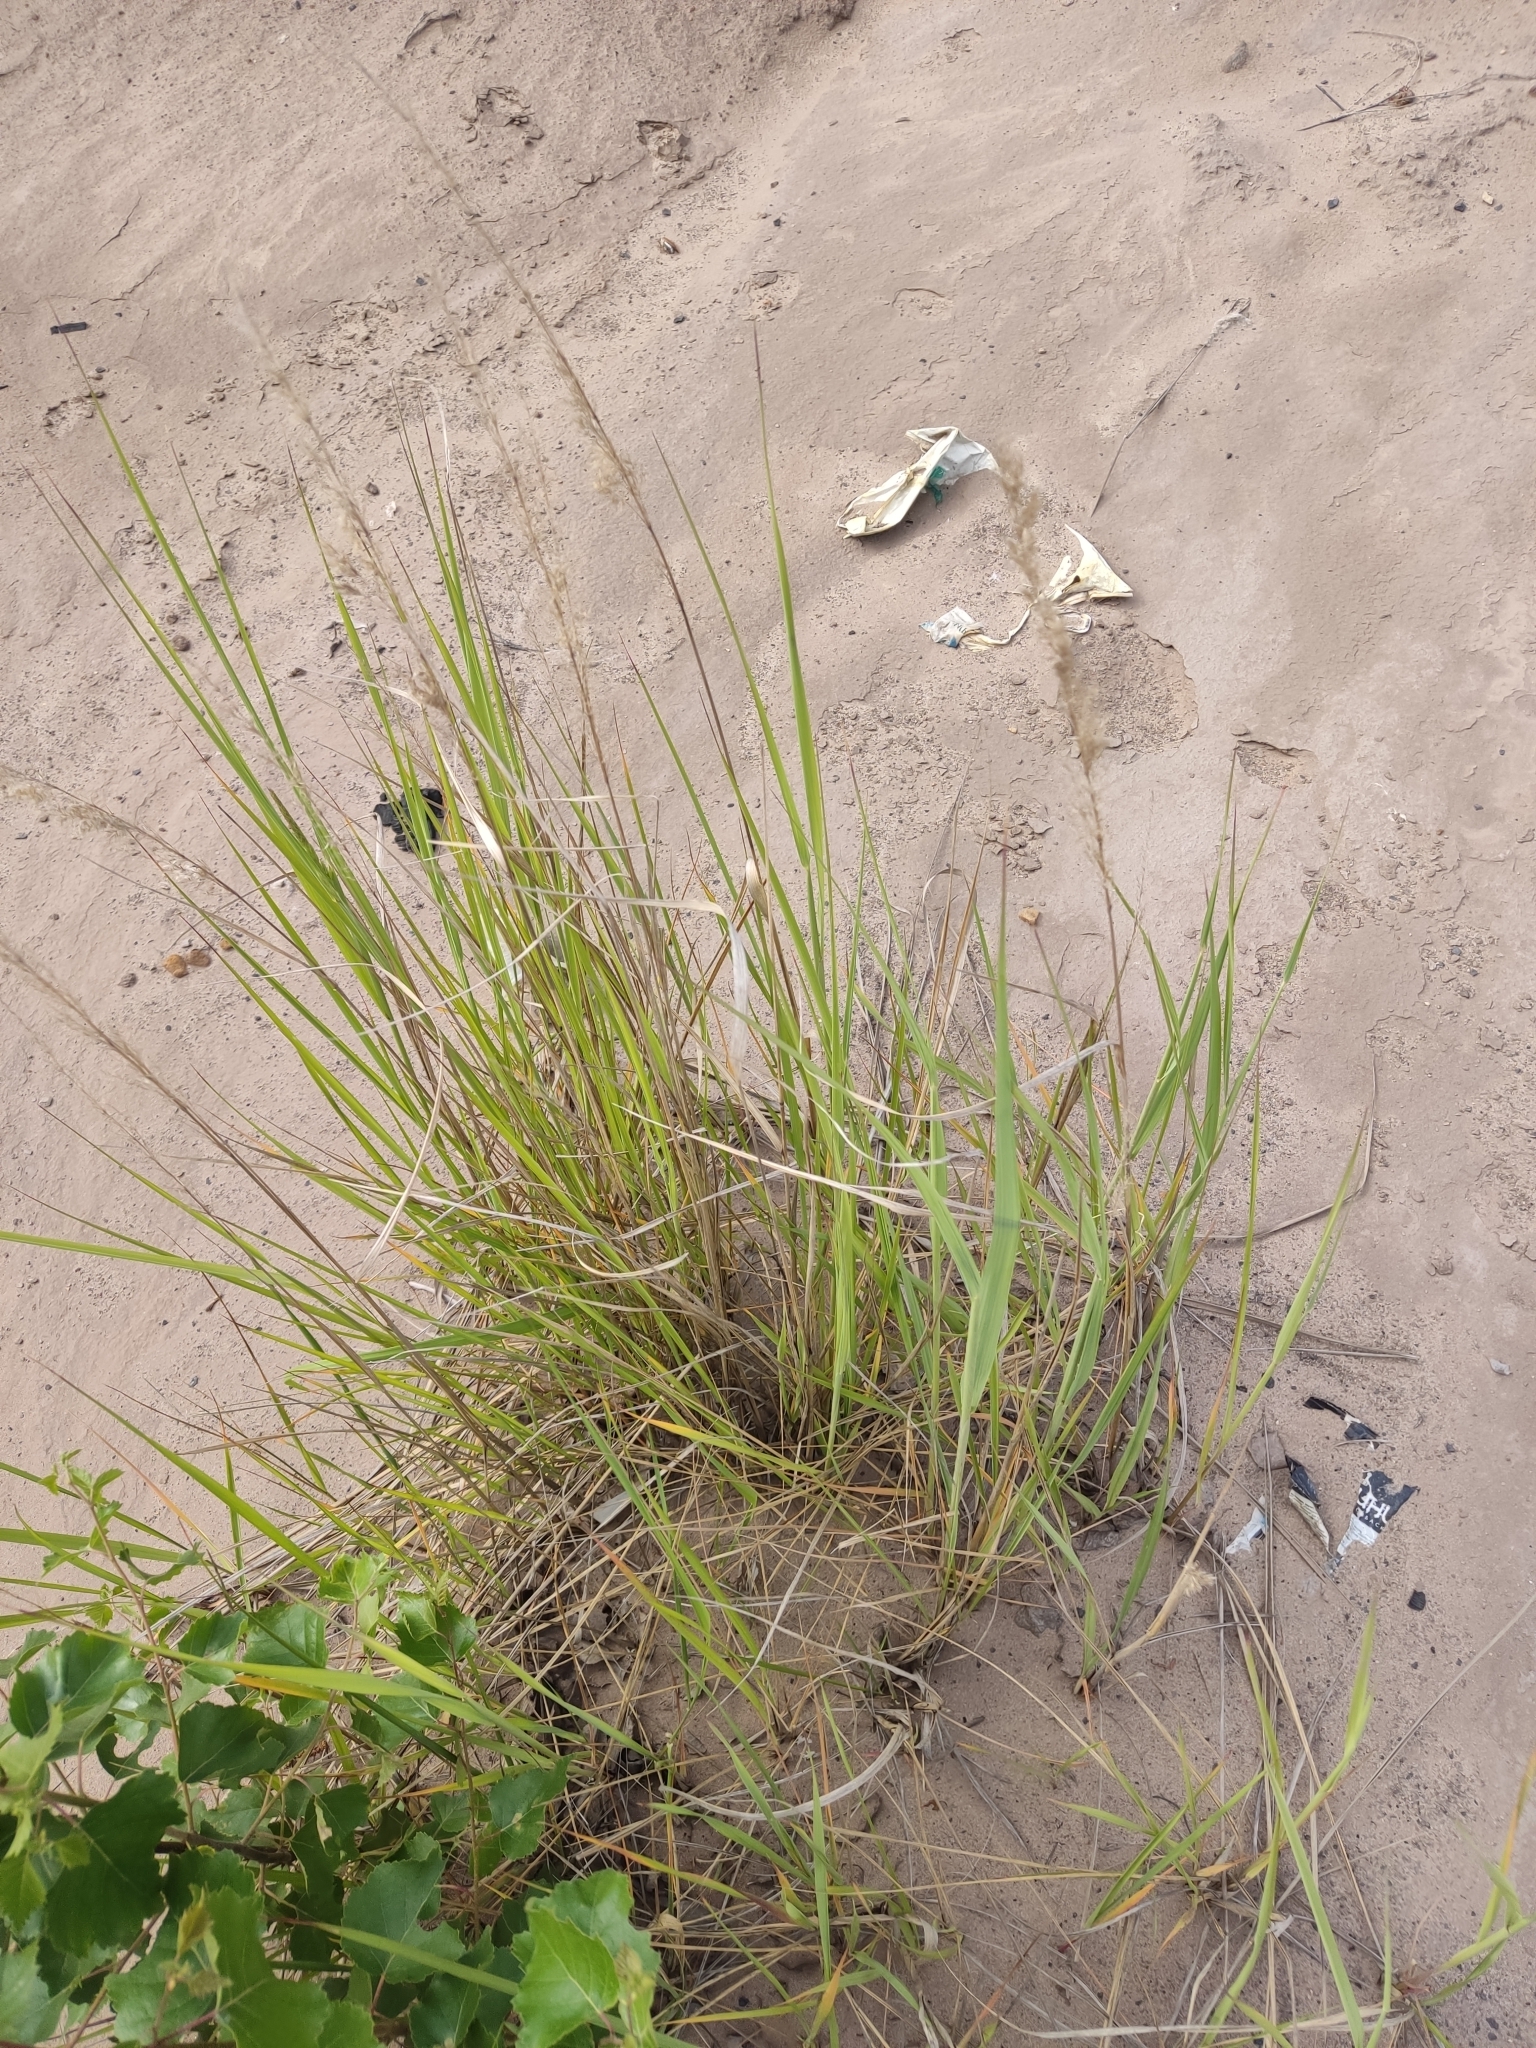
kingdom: Plantae
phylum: Tracheophyta
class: Liliopsida
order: Poales
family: Poaceae
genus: Calamagrostis
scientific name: Calamagrostis epigejos
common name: Wood small-reed
